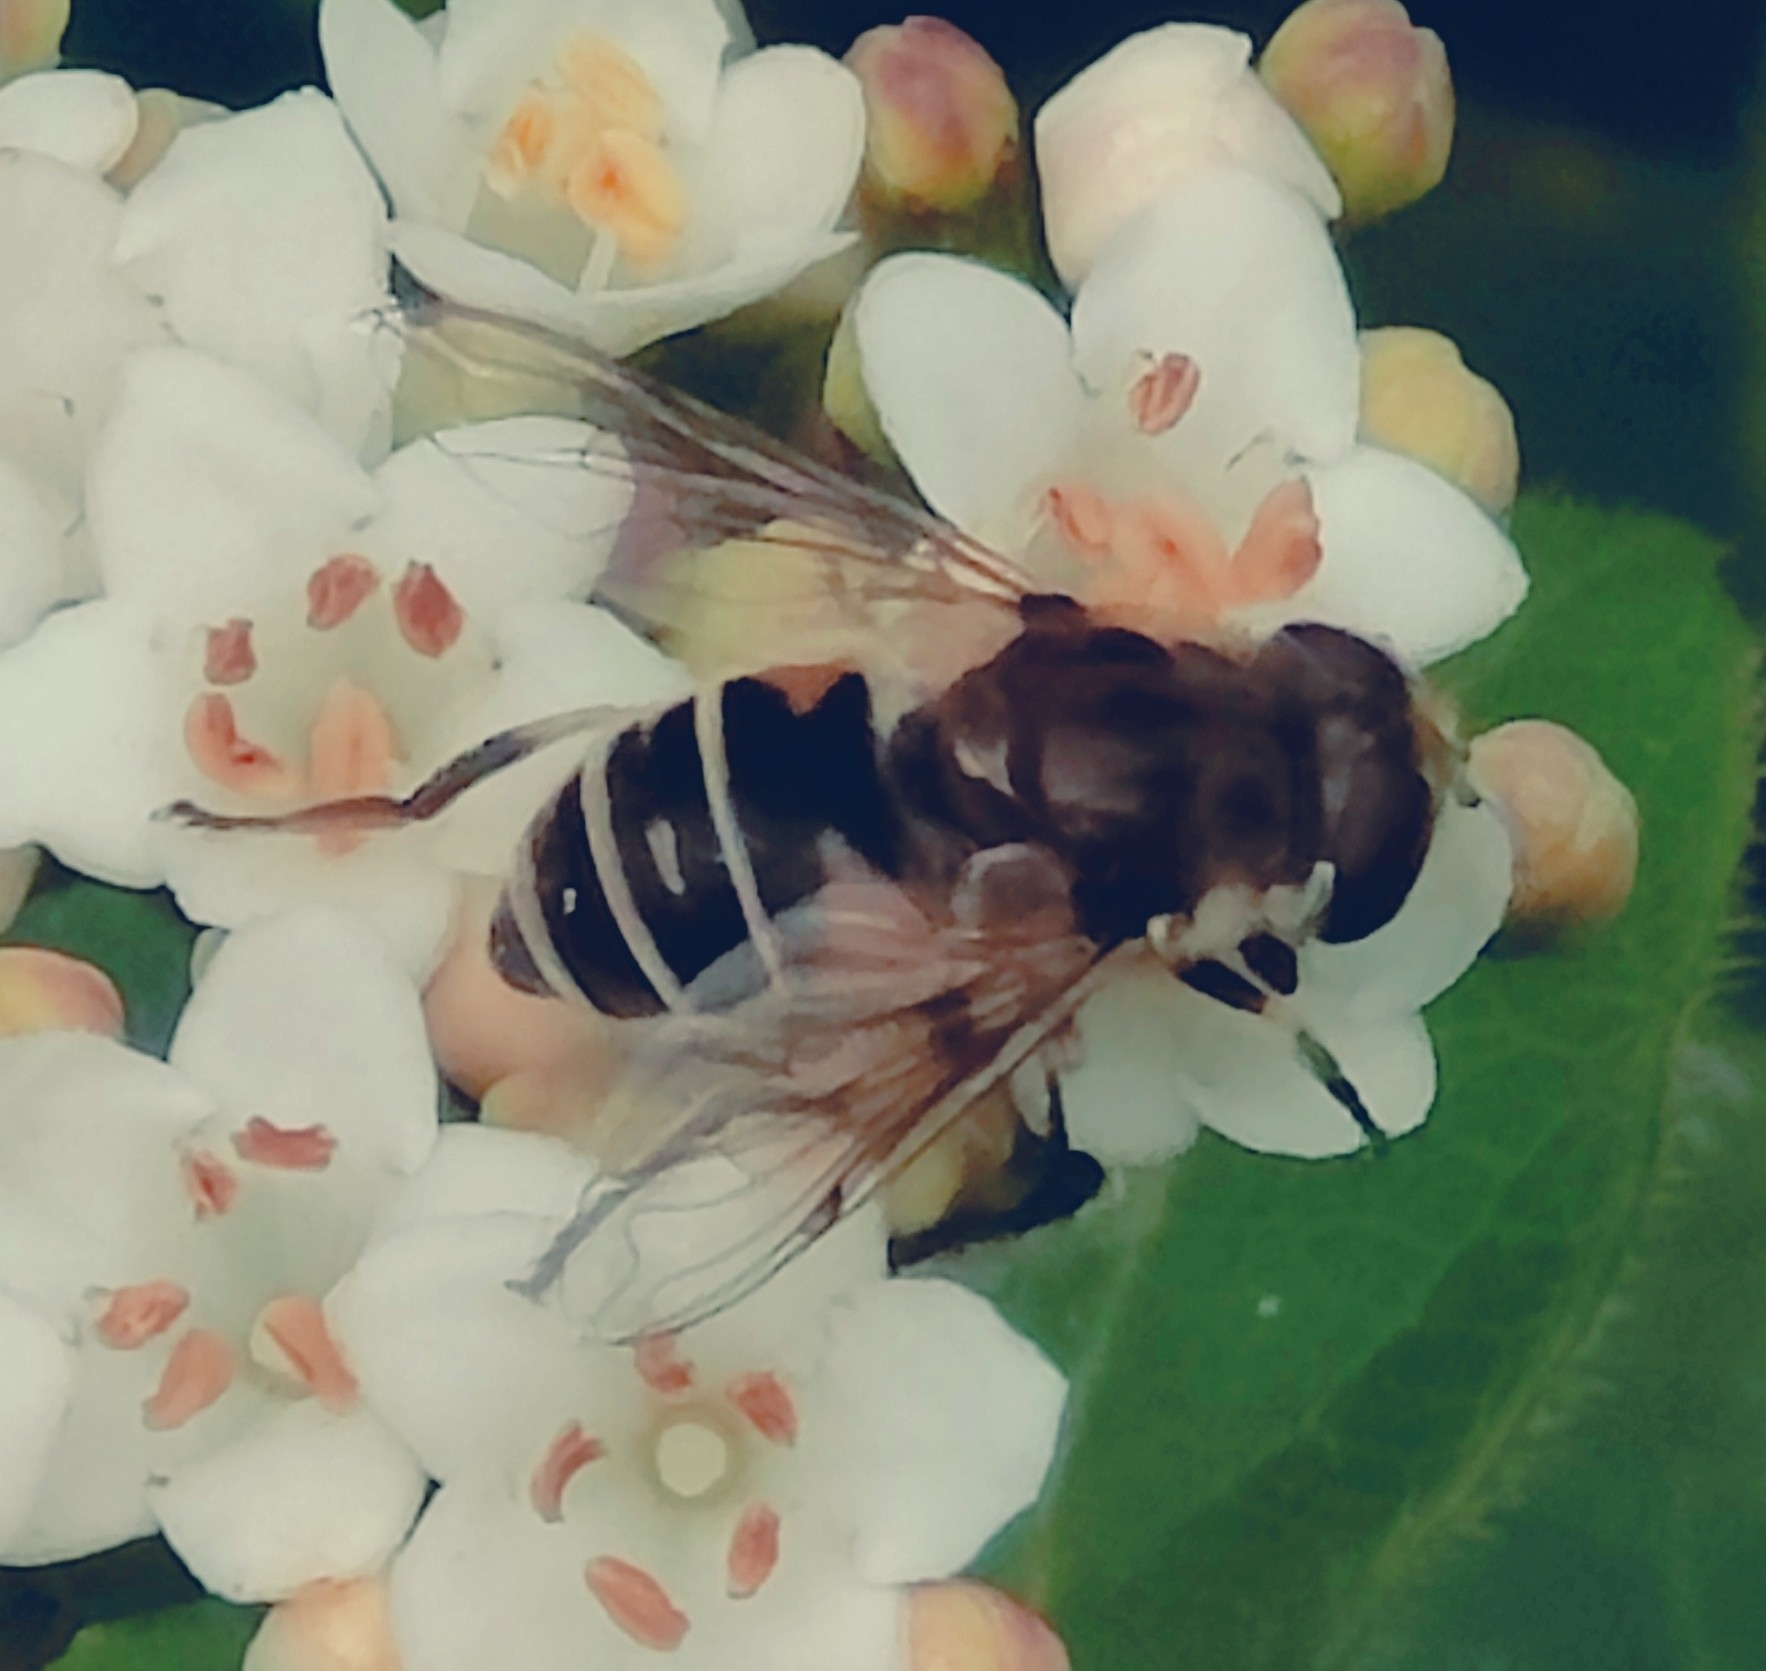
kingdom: Animalia
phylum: Arthropoda
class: Insecta
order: Diptera
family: Syrphidae
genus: Eristalis
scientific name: Eristalis arbustorum
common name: Hover fly
